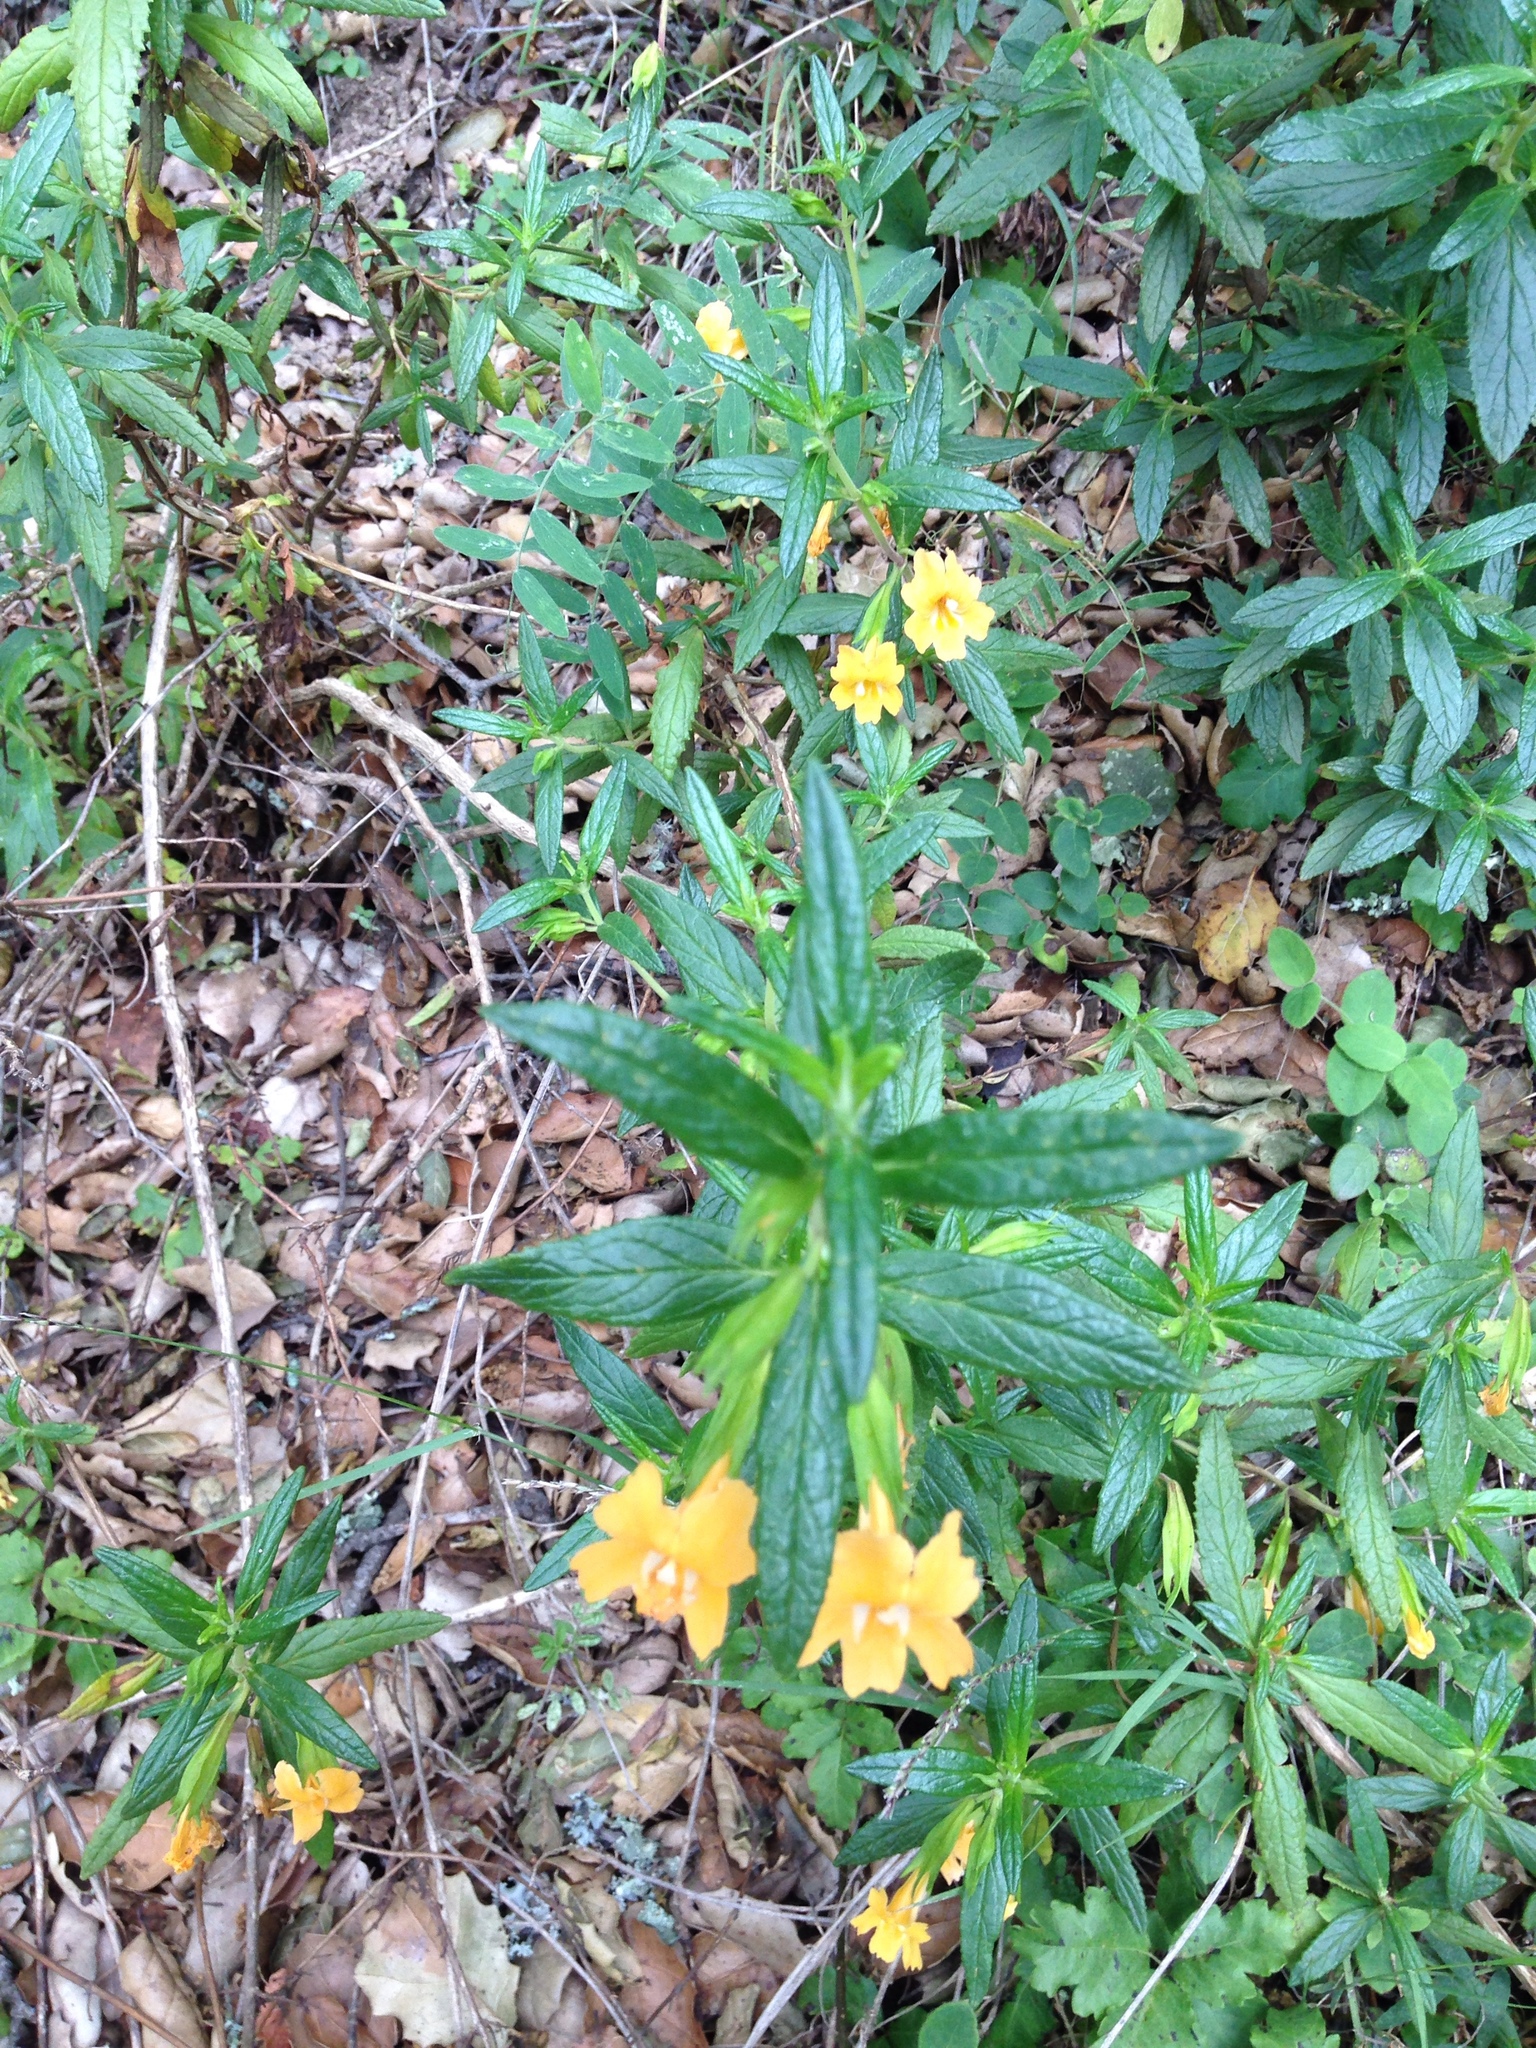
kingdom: Plantae
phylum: Tracheophyta
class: Magnoliopsida
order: Lamiales
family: Phrymaceae
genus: Diplacus
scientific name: Diplacus aurantiacus
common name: Bush monkey-flower
